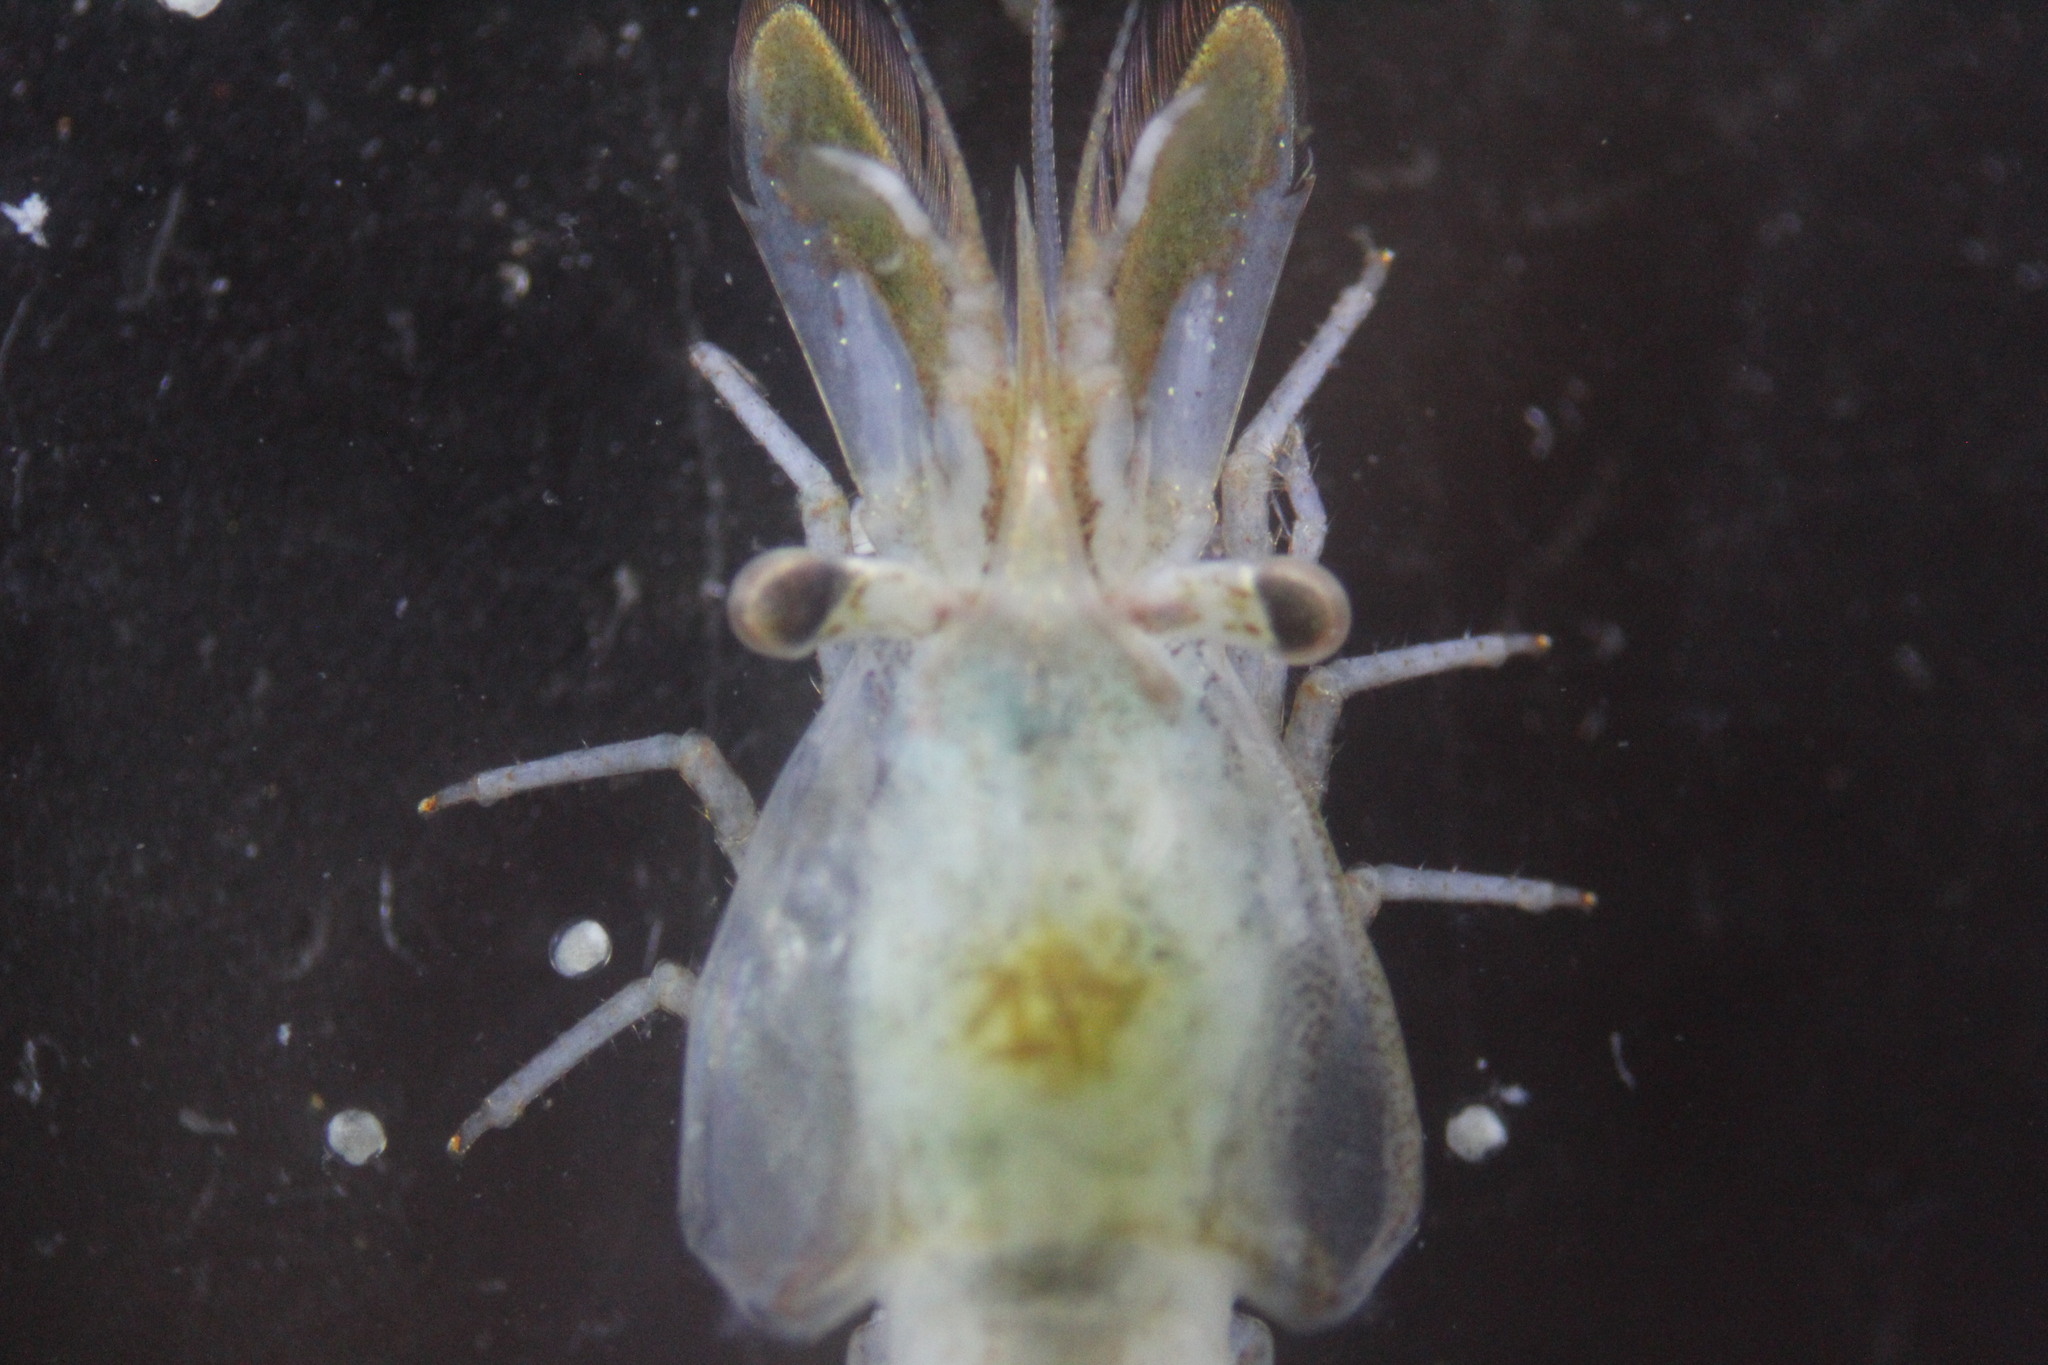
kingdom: Animalia
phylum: Arthropoda
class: Malacostraca
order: Decapoda
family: Hippolytidae
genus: Hippolyte
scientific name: Hippolyte williamsi
